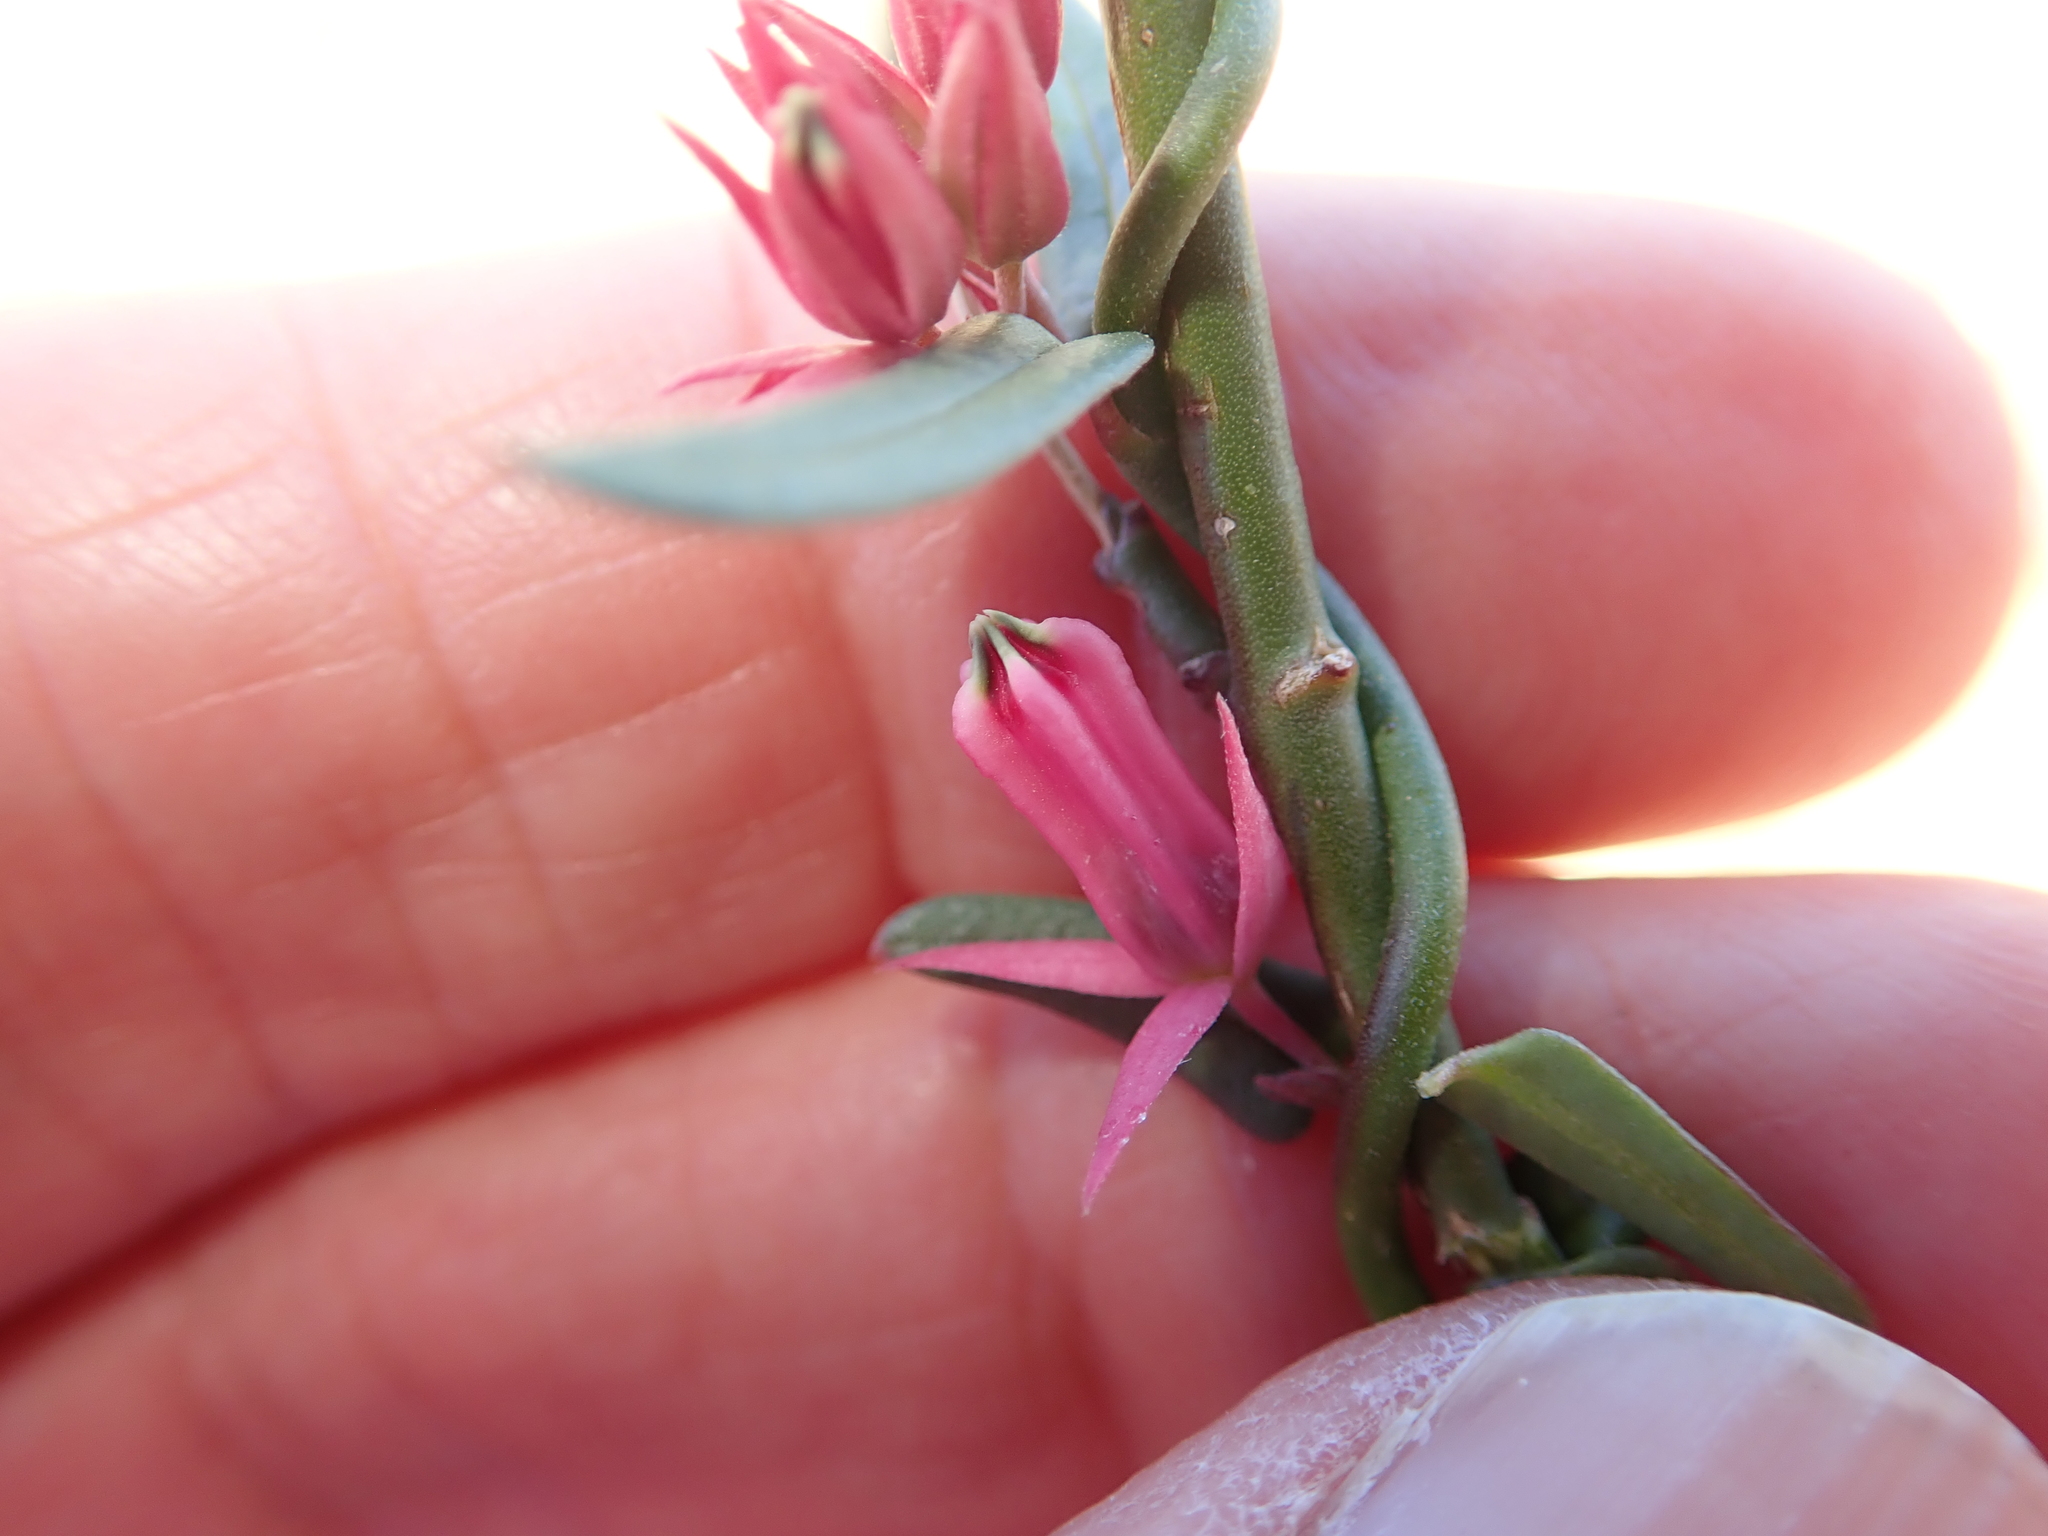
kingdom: Plantae
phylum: Tracheophyta
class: Magnoliopsida
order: Gentianales
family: Apocynaceae
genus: Microloma
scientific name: Microloma sagittatum
